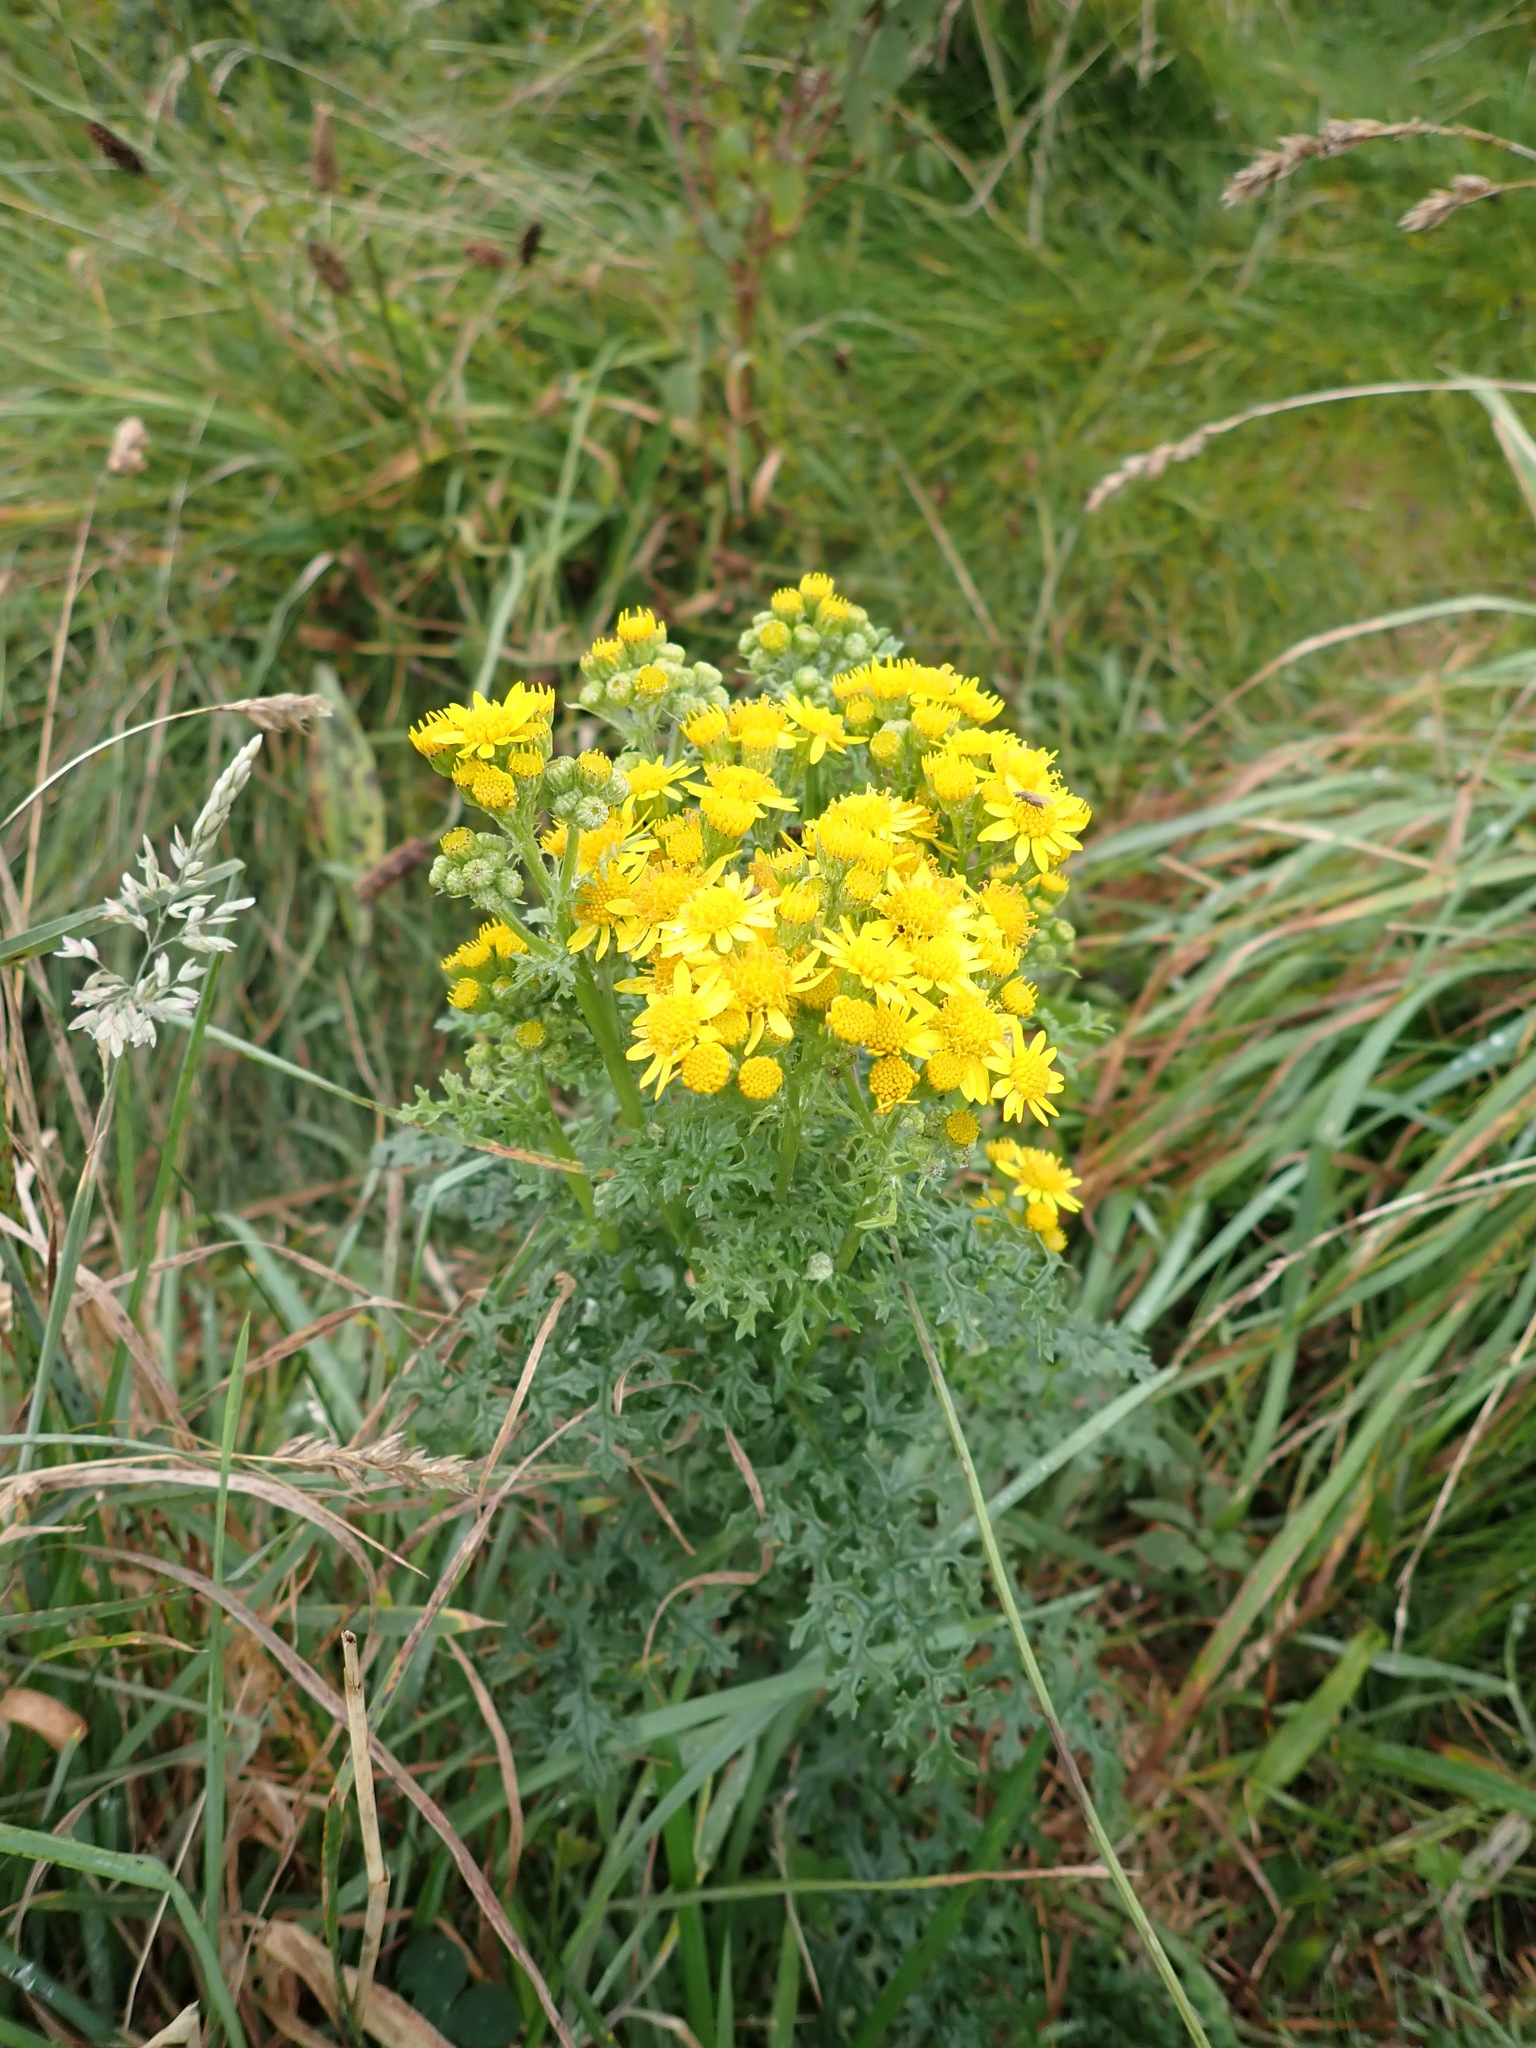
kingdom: Plantae
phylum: Tracheophyta
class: Magnoliopsida
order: Asterales
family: Asteraceae
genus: Jacobaea
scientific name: Jacobaea vulgaris
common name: Stinking willie
